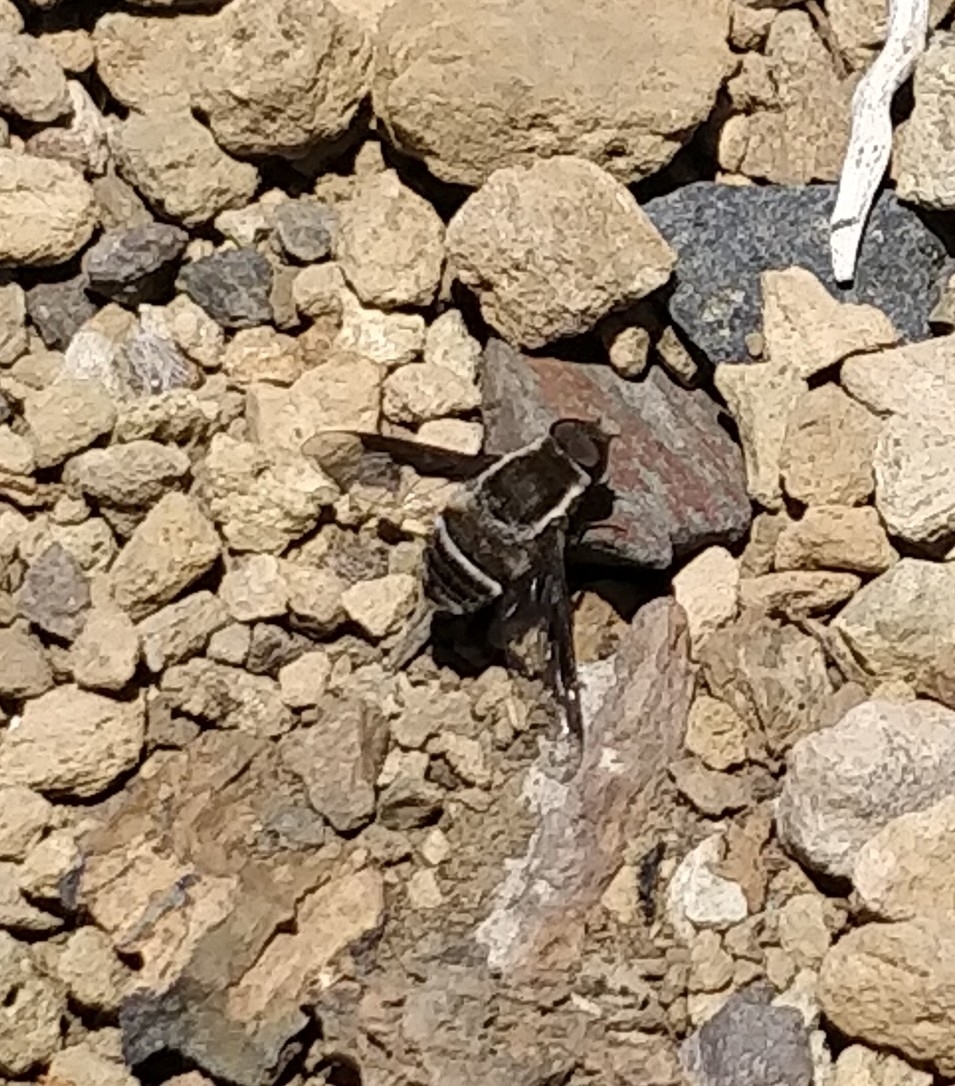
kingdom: Animalia
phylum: Arthropoda
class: Insecta
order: Diptera
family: Bombyliidae
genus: Exhyalanthrax
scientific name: Exhyalanthrax simonae
